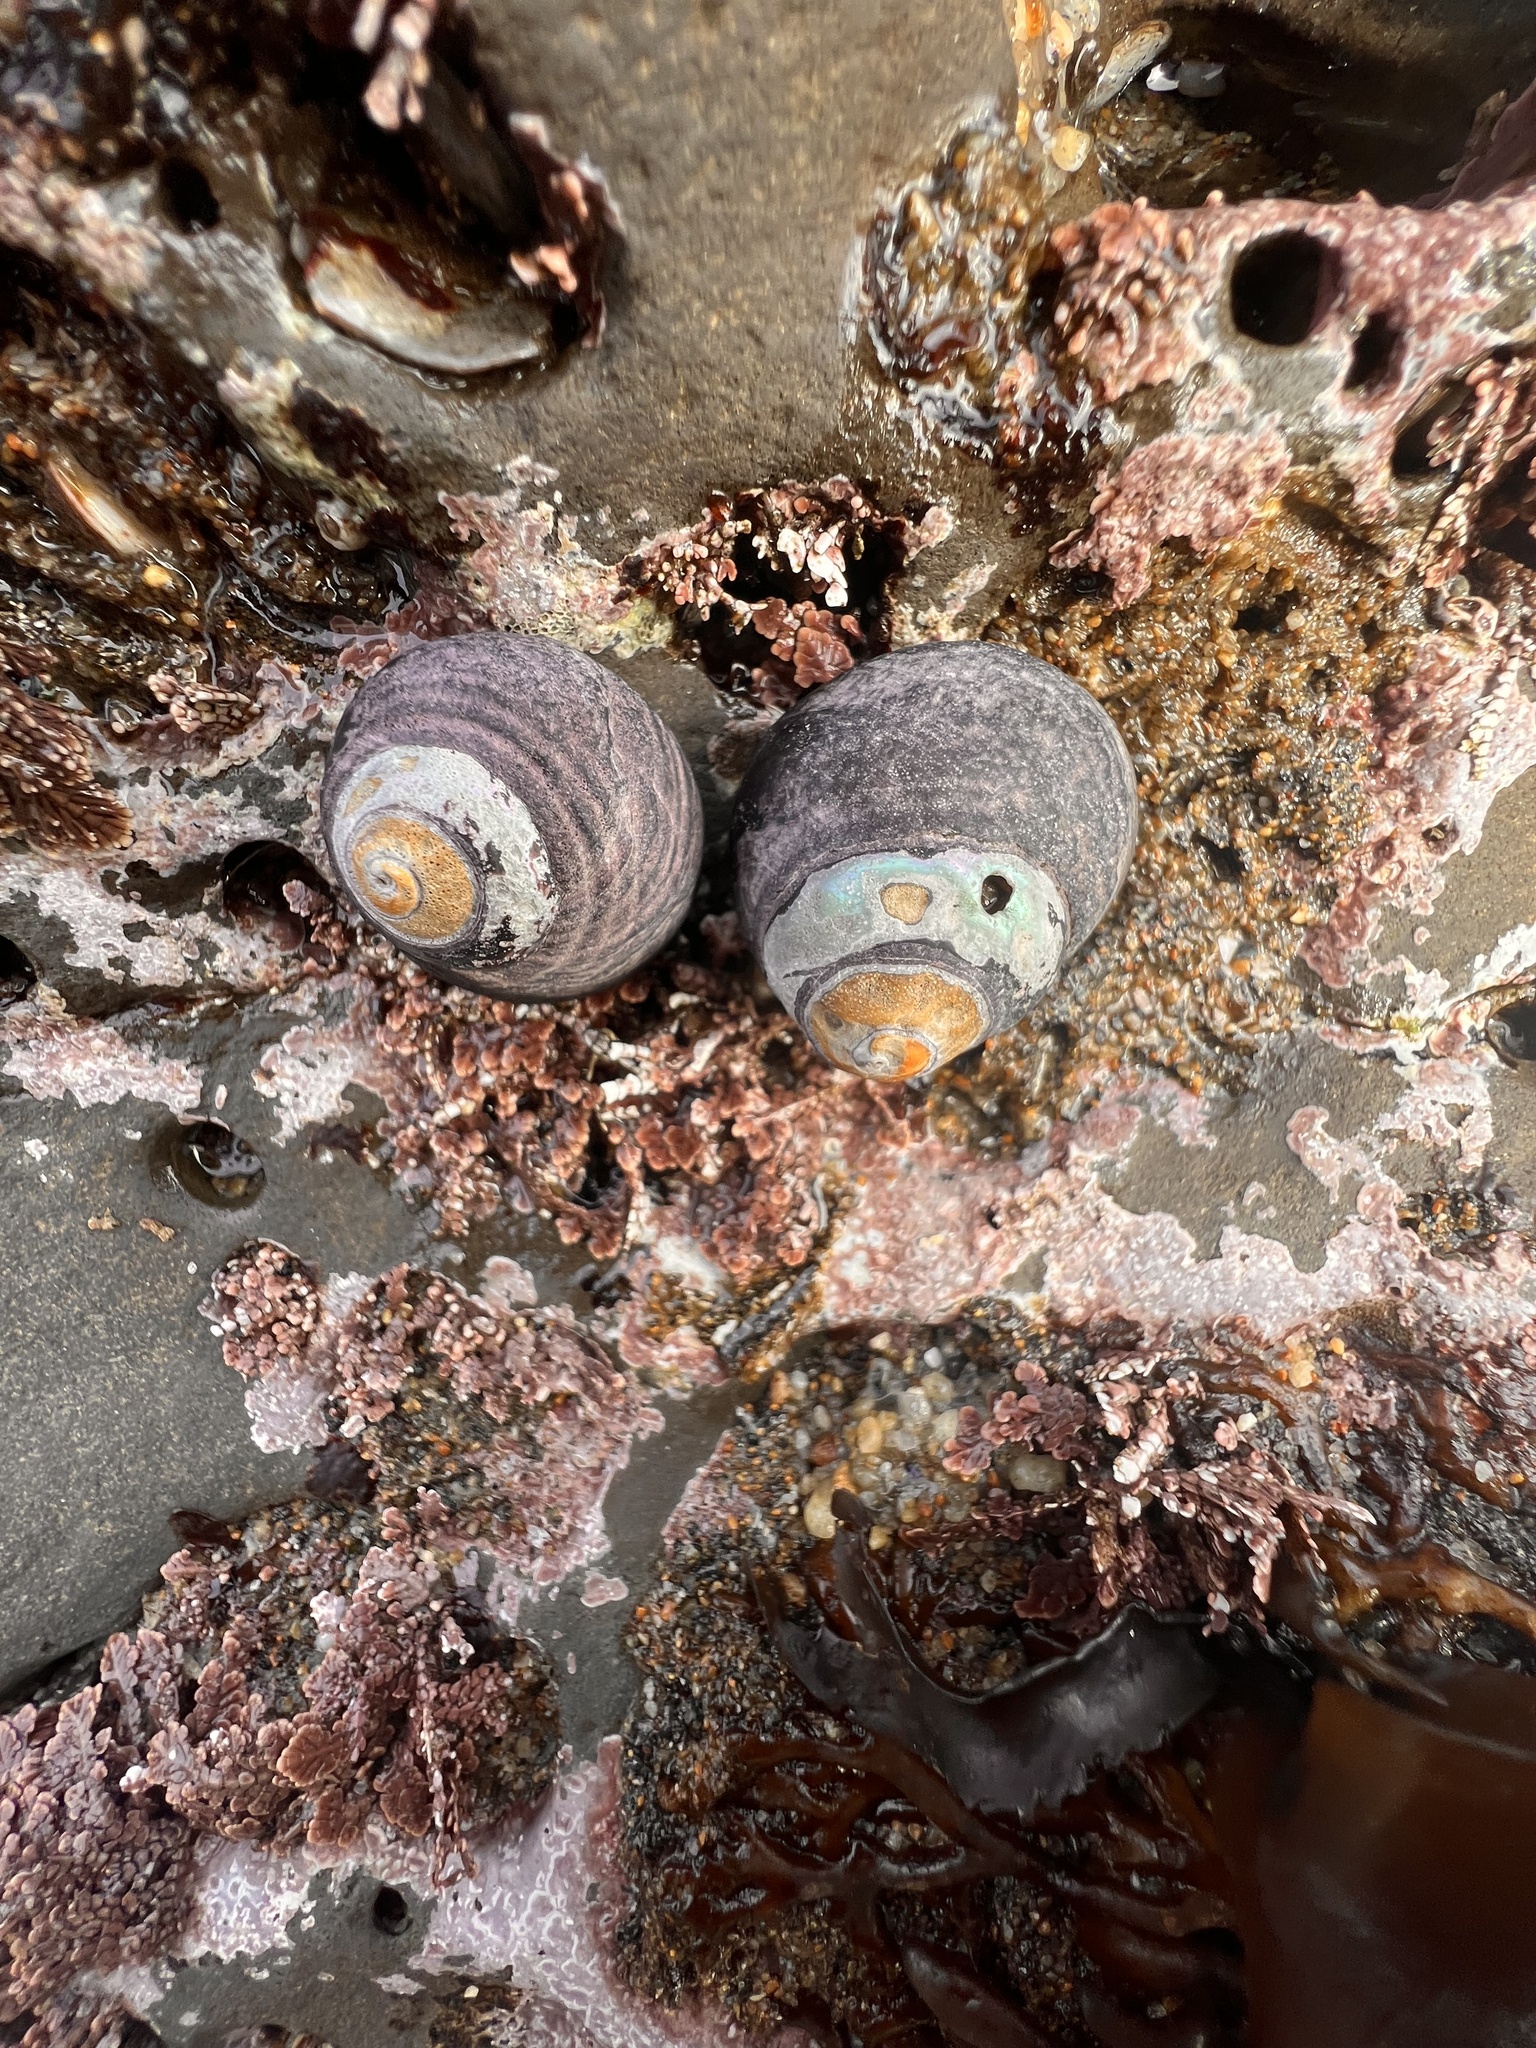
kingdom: Animalia
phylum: Mollusca
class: Gastropoda
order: Trochida
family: Tegulidae
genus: Tegula
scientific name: Tegula funebralis
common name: Black tegula
